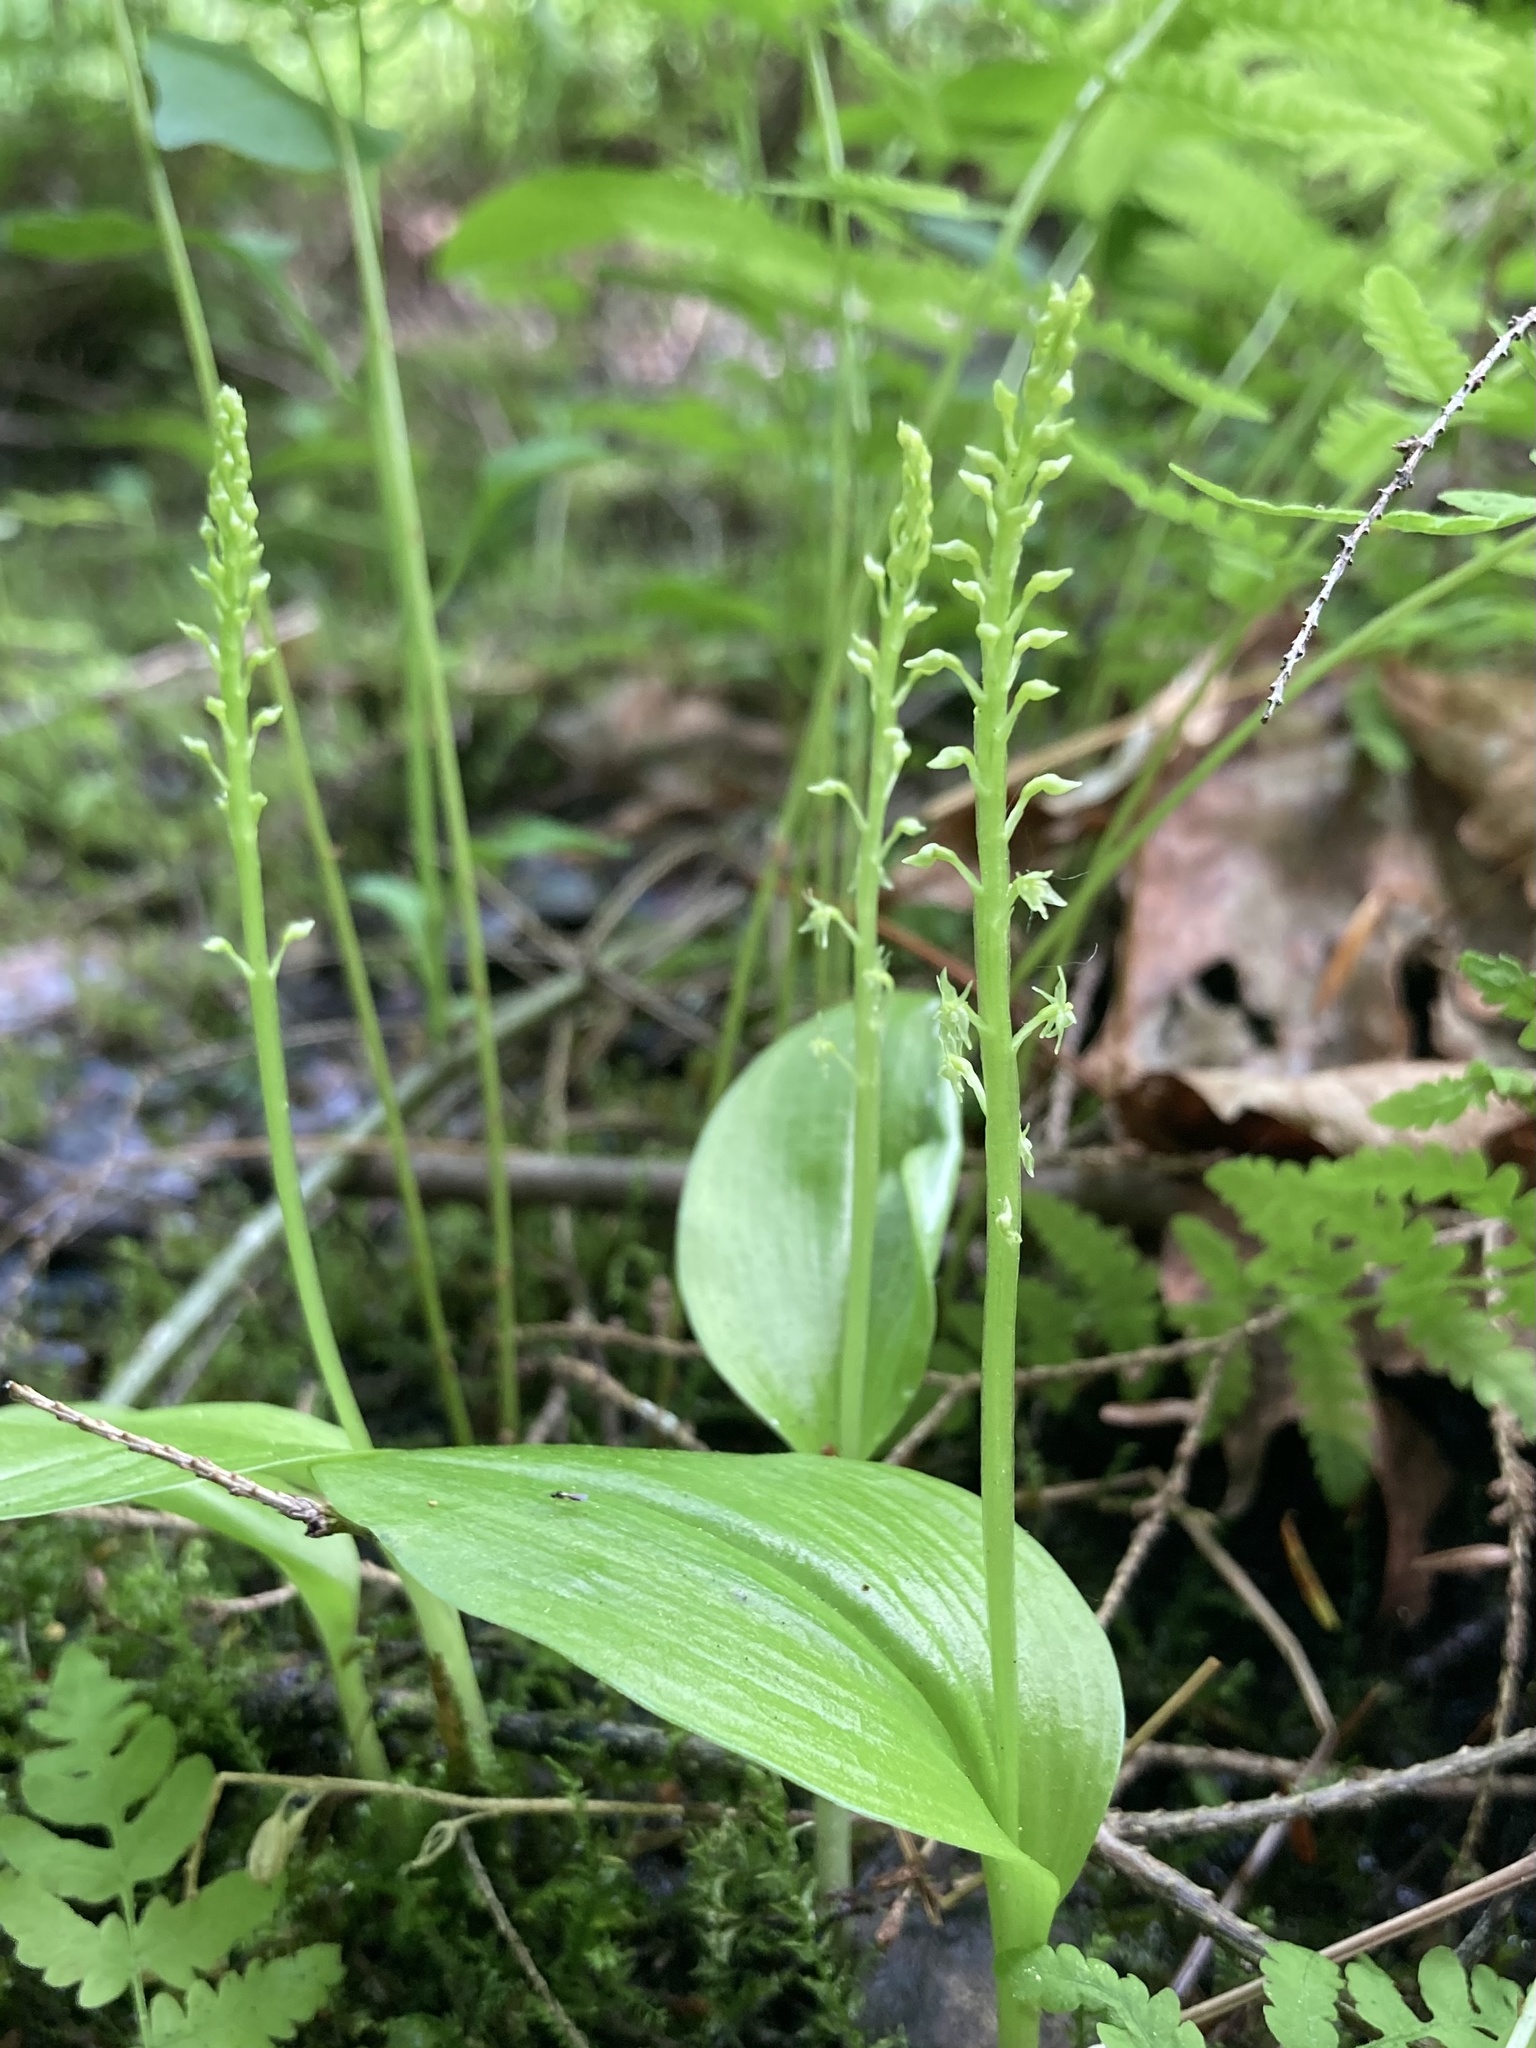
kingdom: Plantae
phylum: Tracheophyta
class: Liliopsida
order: Asparagales
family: Orchidaceae
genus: Malaxis
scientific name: Malaxis monophyllos
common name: White adder's-mouth
